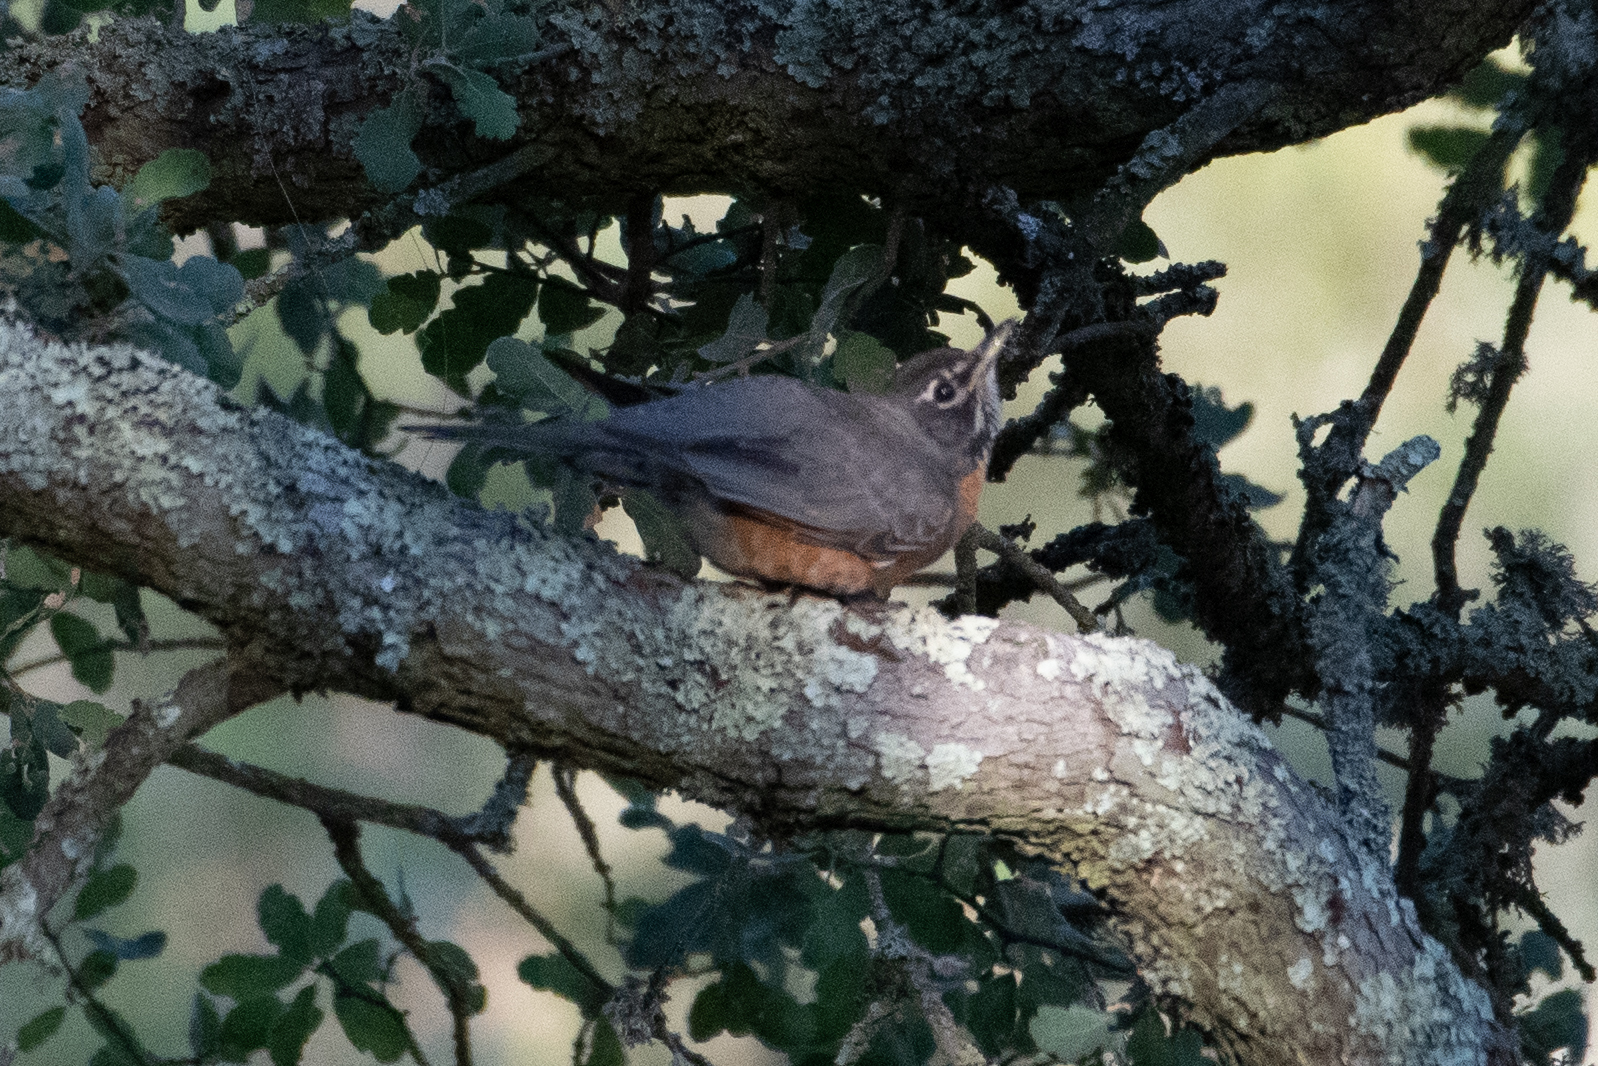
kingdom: Animalia
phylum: Chordata
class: Aves
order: Passeriformes
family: Turdidae
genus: Turdus
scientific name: Turdus migratorius
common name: American robin
